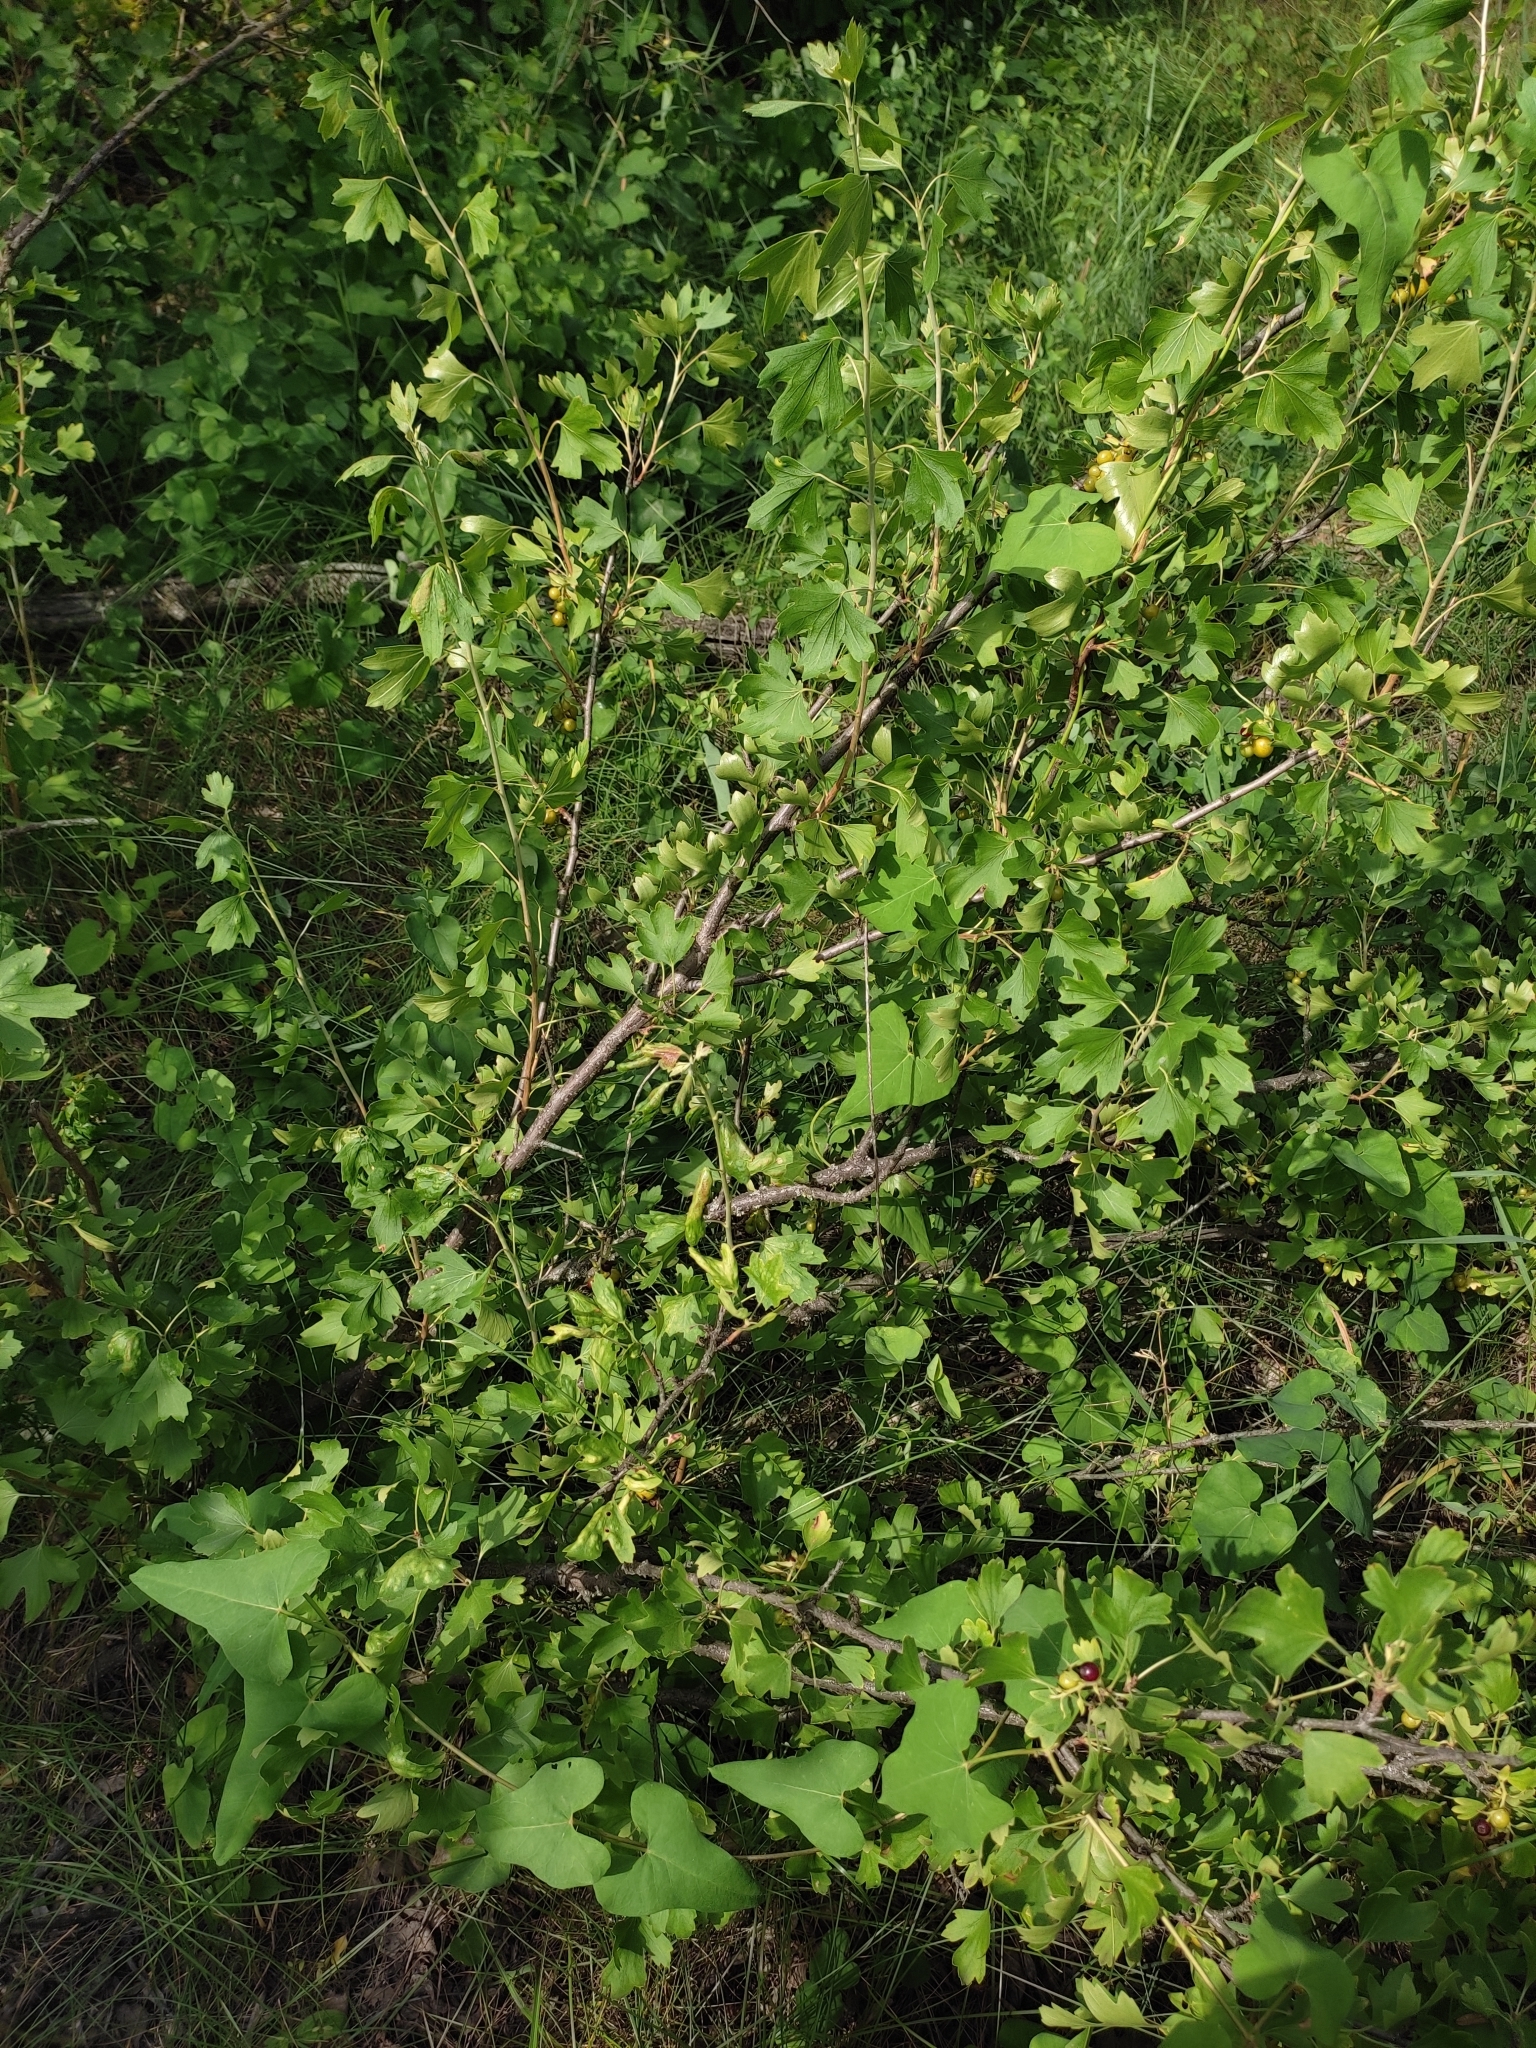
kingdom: Plantae
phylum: Tracheophyta
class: Magnoliopsida
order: Saxifragales
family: Grossulariaceae
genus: Ribes
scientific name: Ribes aureum
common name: Golden currant
